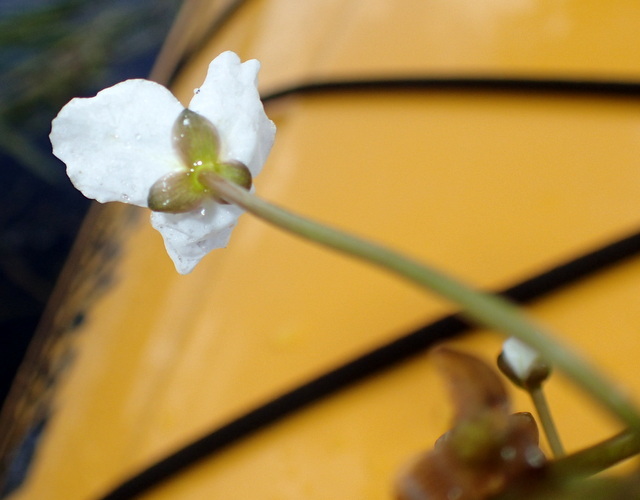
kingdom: Plantae
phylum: Tracheophyta
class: Liliopsida
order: Alismatales
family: Alismataceae
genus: Sagittaria
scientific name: Sagittaria kurziana
